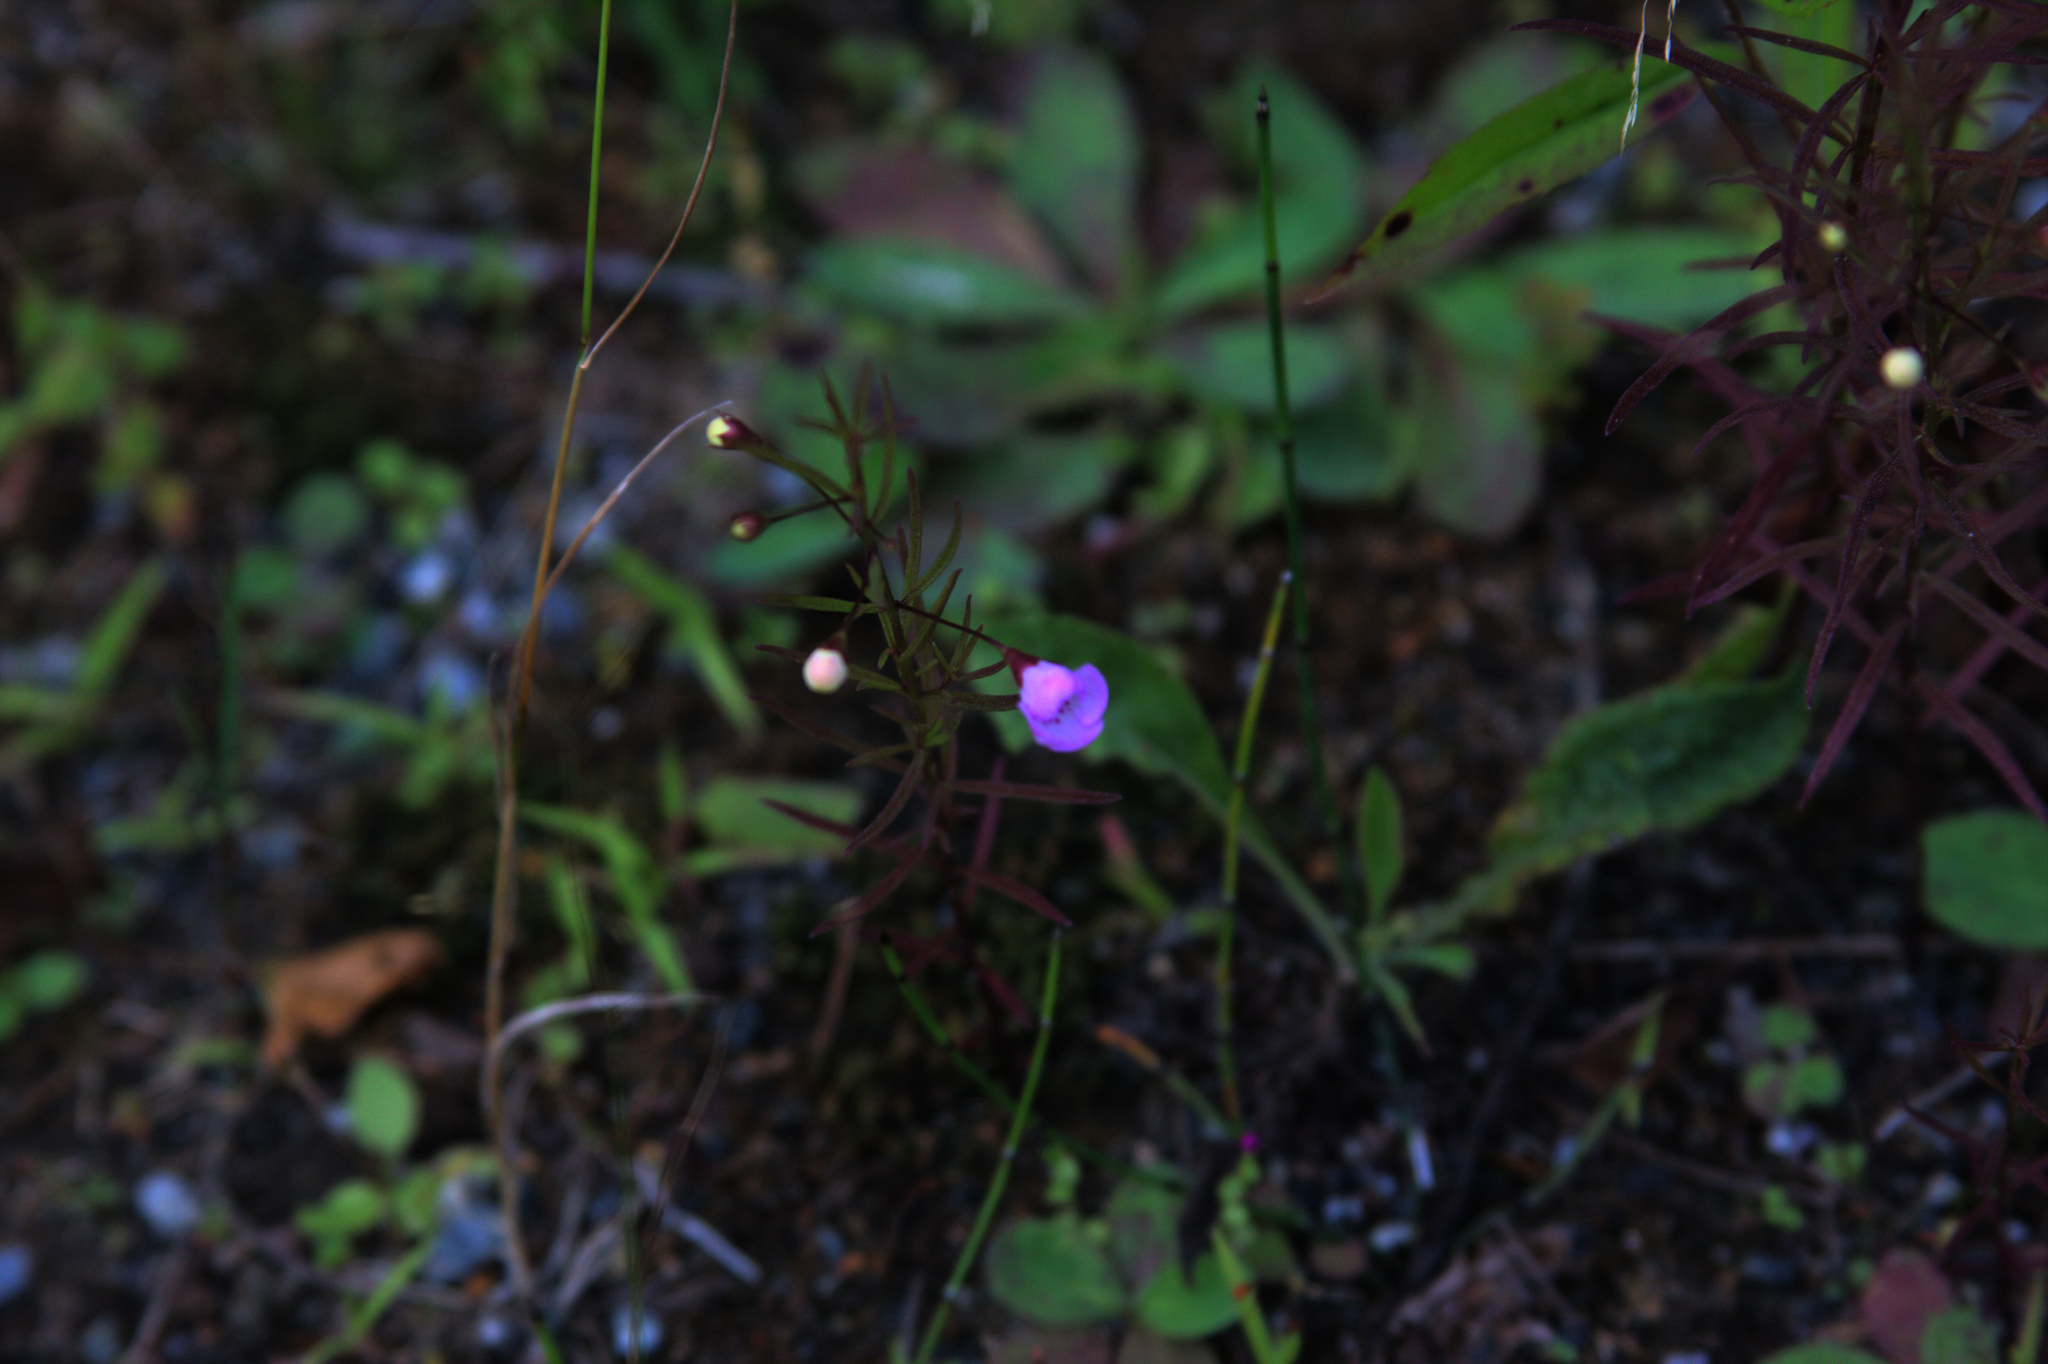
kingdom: Plantae
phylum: Tracheophyta
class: Magnoliopsida
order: Lamiales
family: Orobanchaceae
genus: Agalinis
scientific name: Agalinis tenuifolia
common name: Slender agalinis
